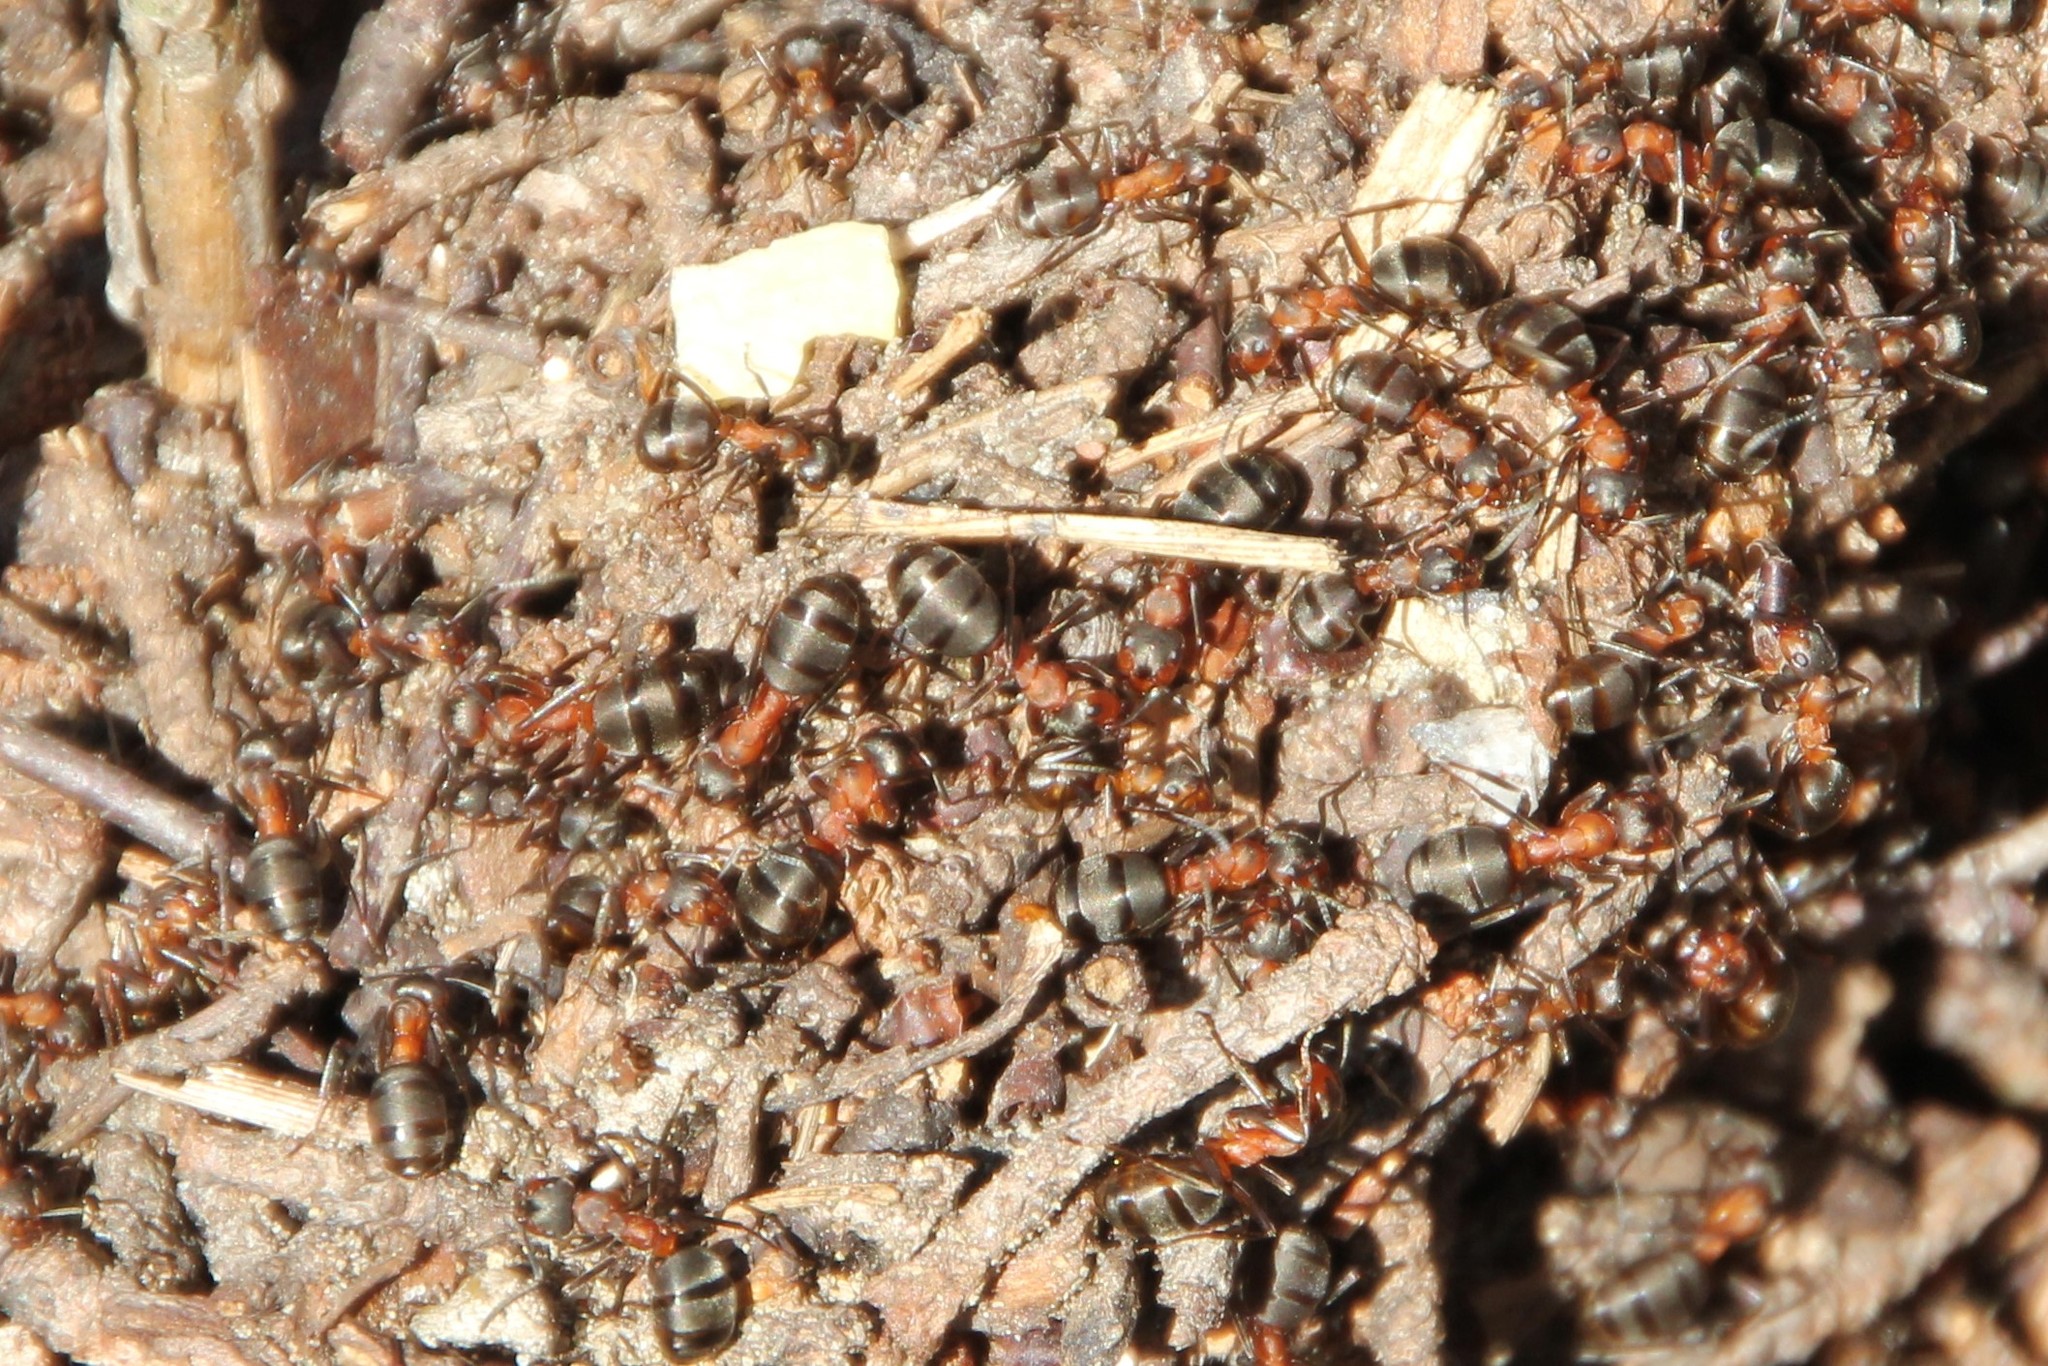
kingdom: Animalia
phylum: Arthropoda
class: Insecta
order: Hymenoptera
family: Formicidae
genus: Formica
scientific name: Formica
